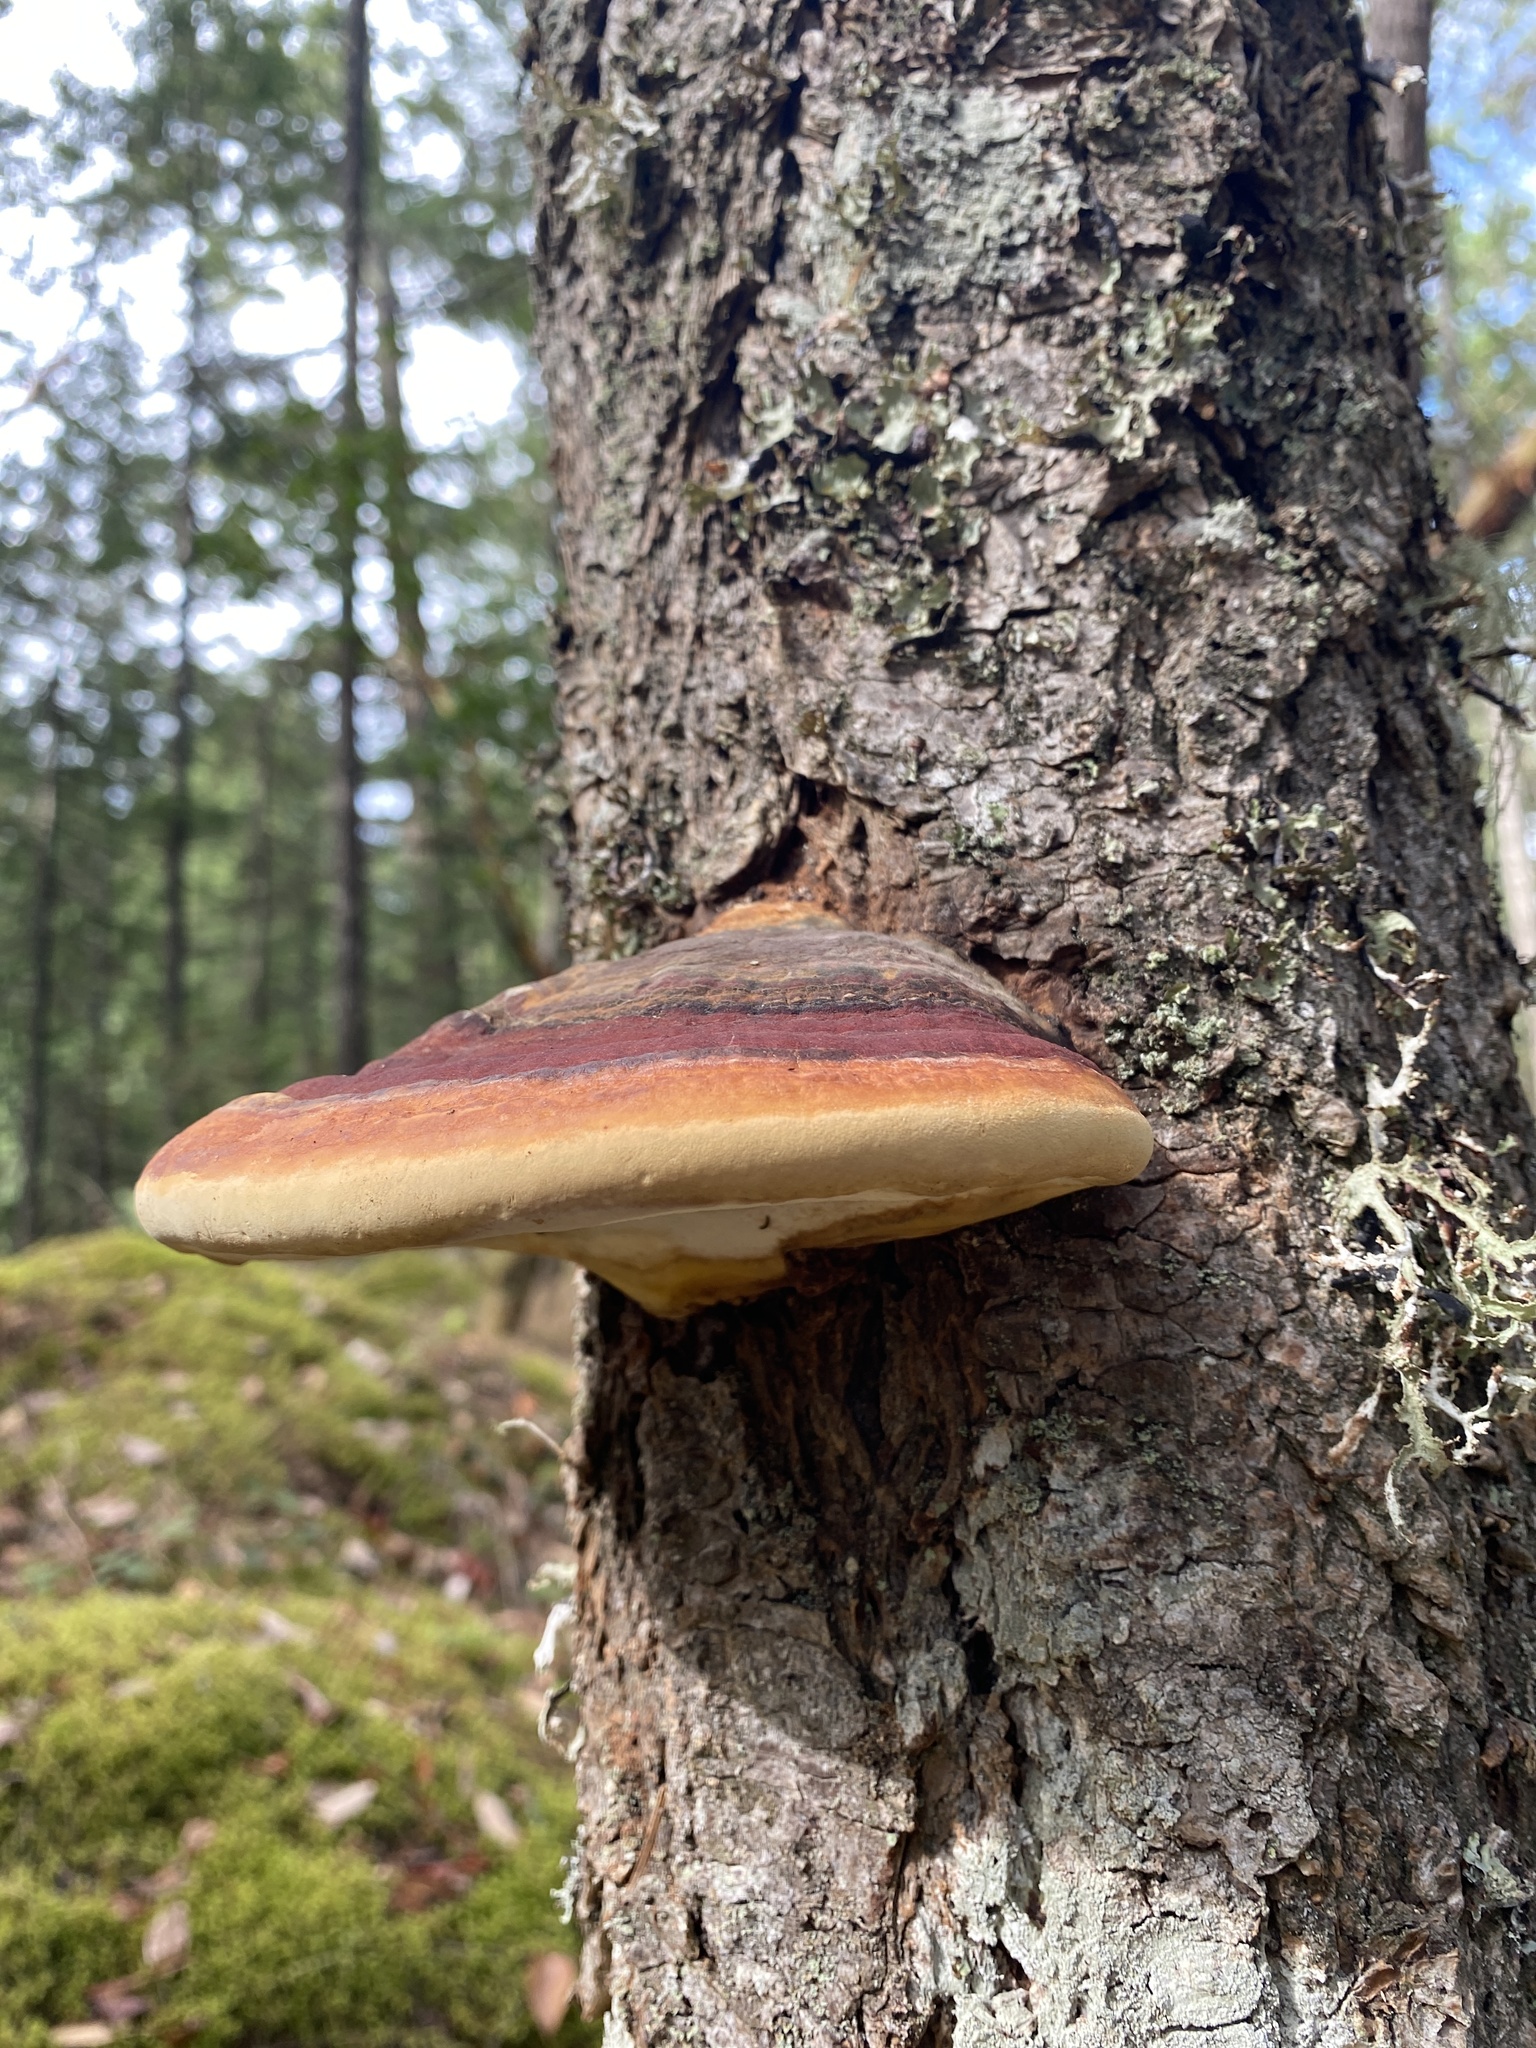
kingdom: Fungi
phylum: Basidiomycota
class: Agaricomycetes
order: Polyporales
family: Fomitopsidaceae
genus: Fomitopsis
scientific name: Fomitopsis mounceae
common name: Northern red belt
